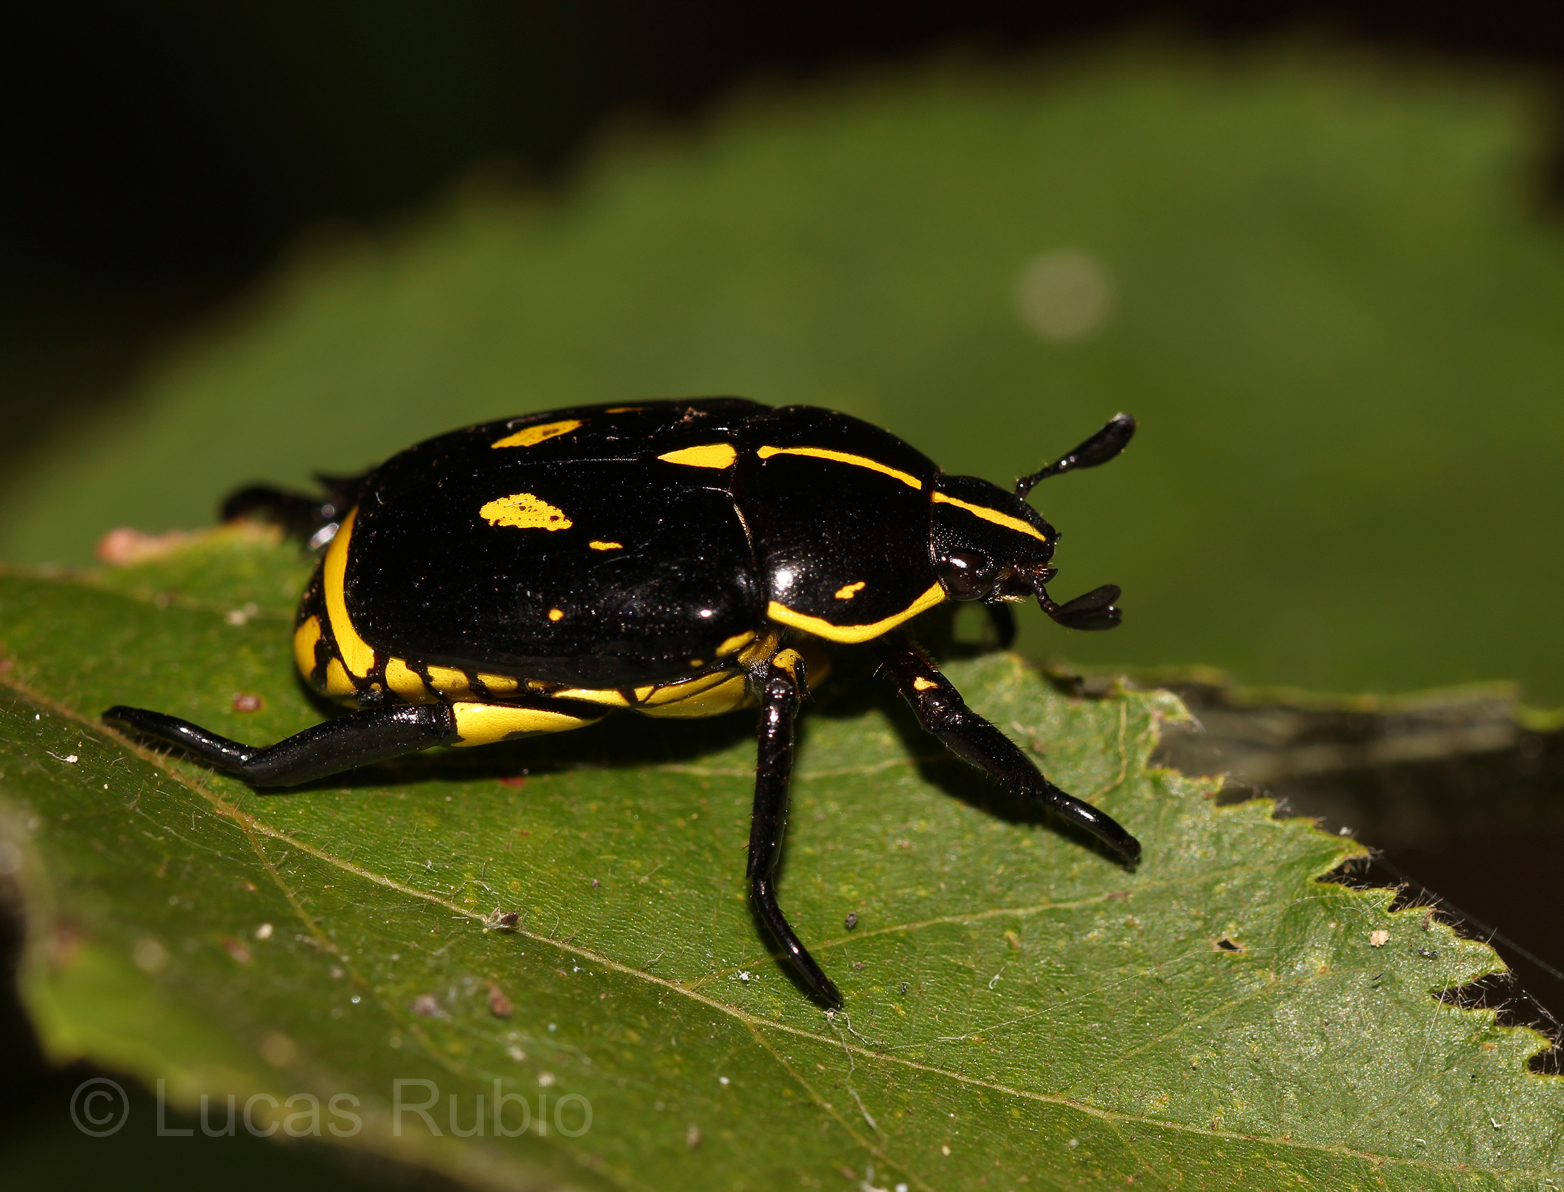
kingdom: Animalia
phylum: Arthropoda
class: Insecta
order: Coleoptera
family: Scarabaeidae
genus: Rutela
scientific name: Rutela lineola
